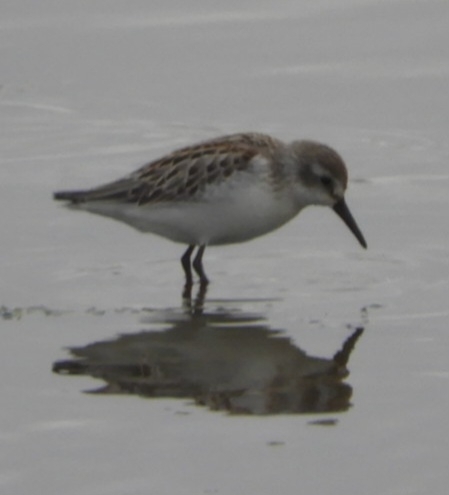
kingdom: Animalia
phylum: Chordata
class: Aves
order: Charadriiformes
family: Scolopacidae
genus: Calidris
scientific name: Calidris mauri
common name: Western sandpiper
